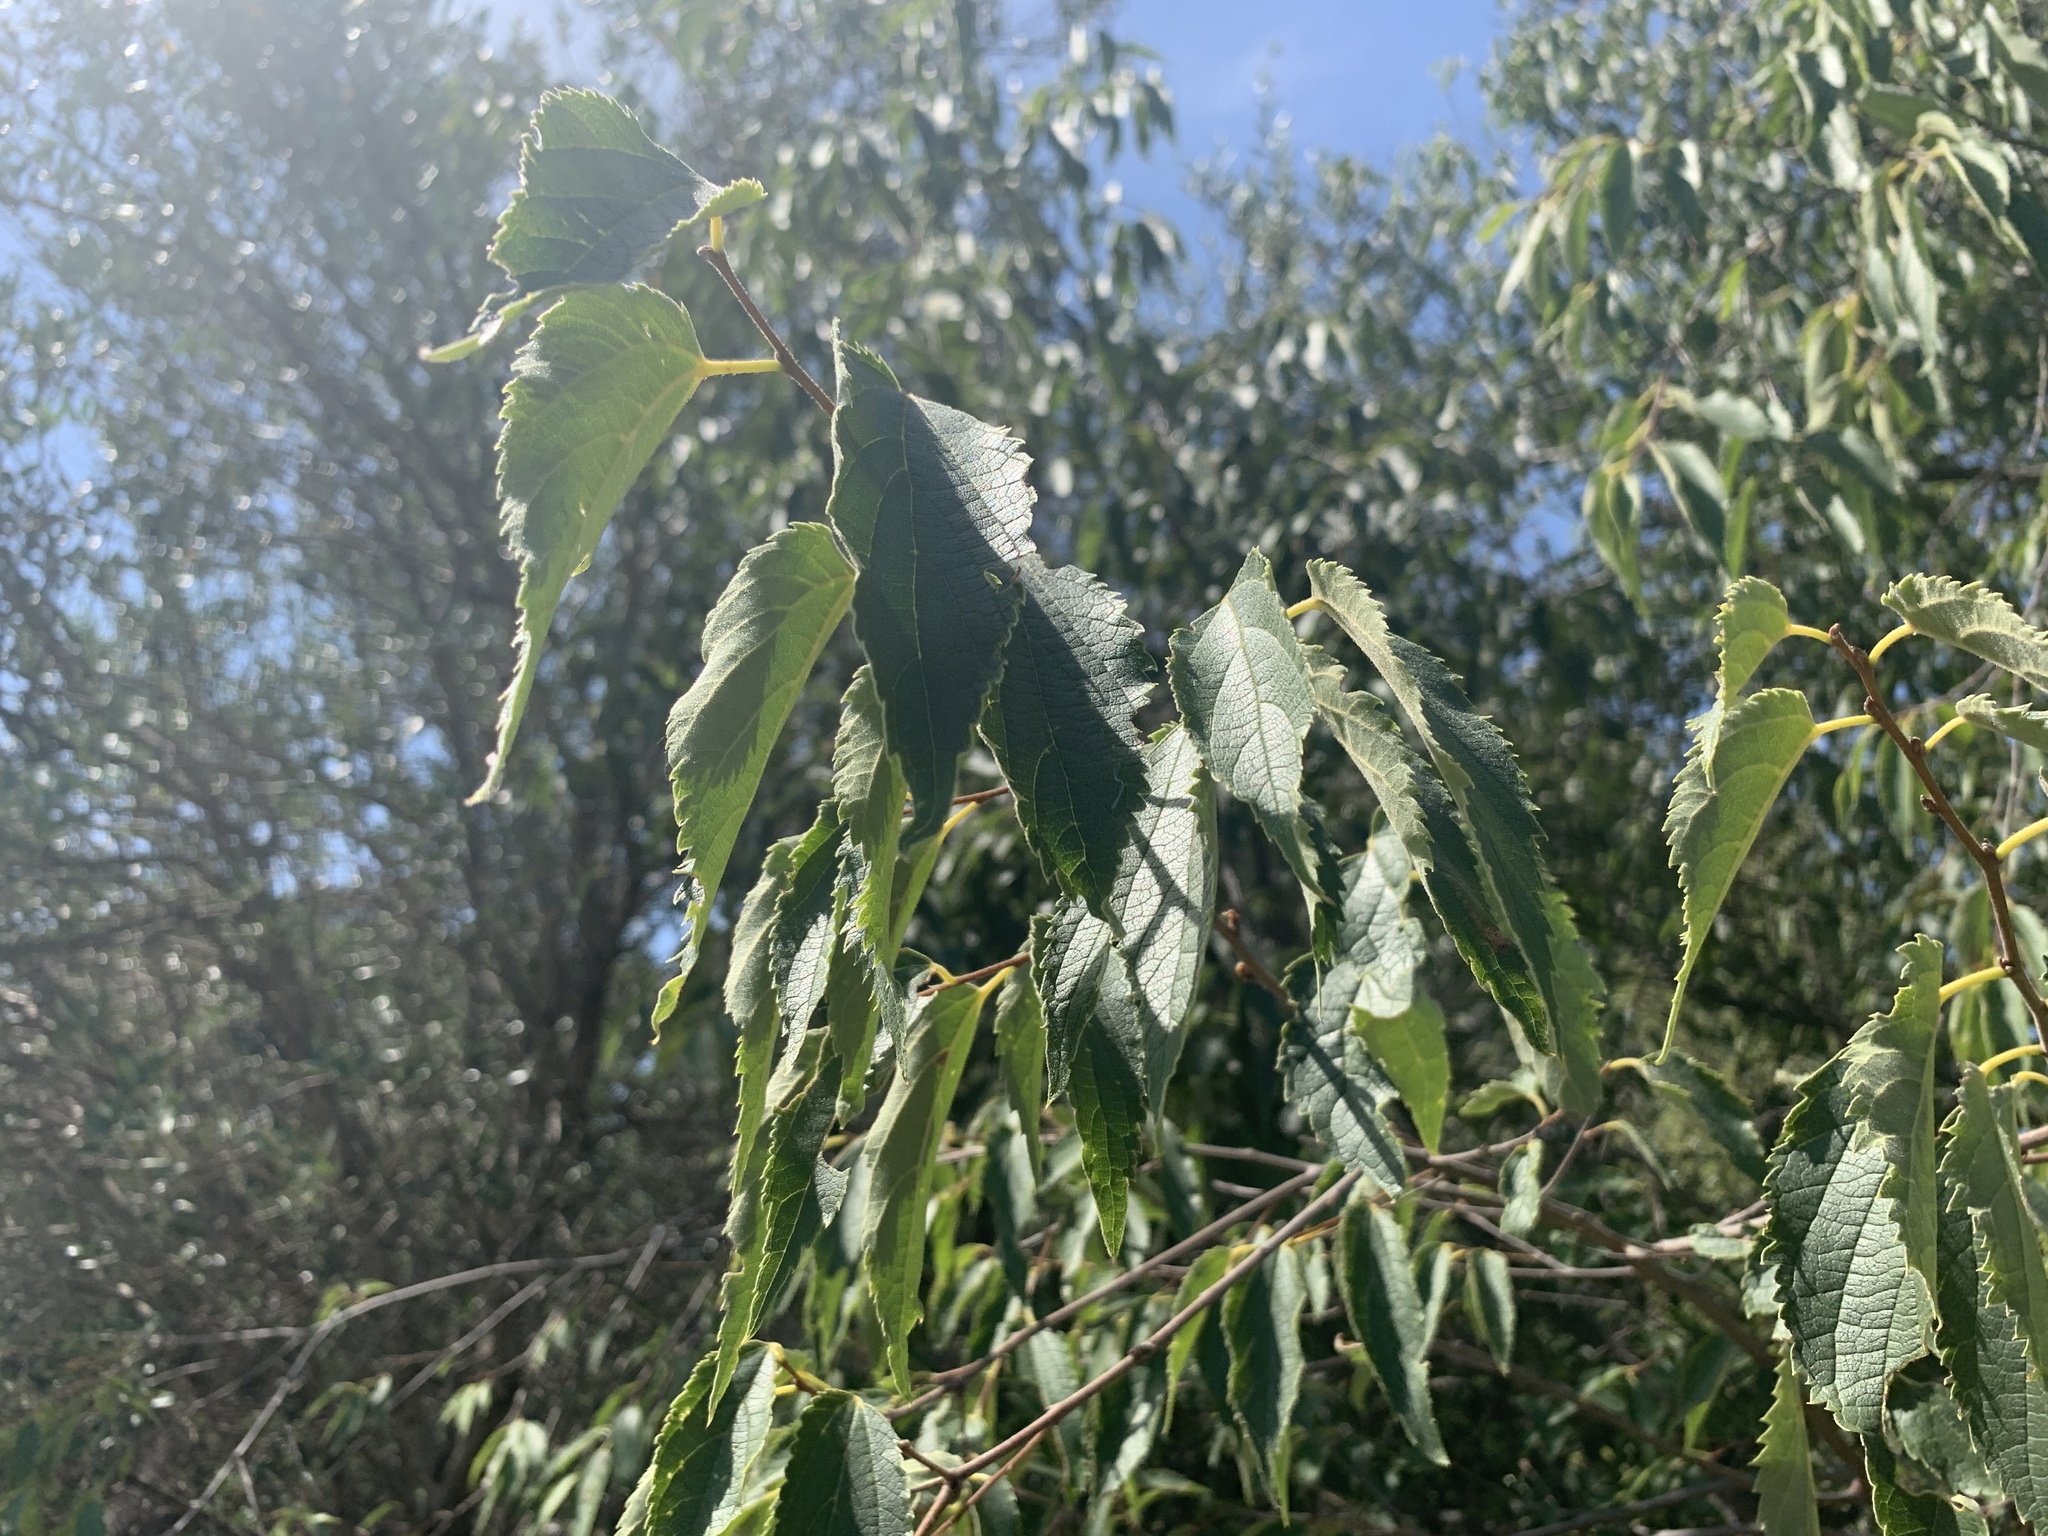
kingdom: Plantae
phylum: Tracheophyta
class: Magnoliopsida
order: Rosales
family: Cannabaceae
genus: Celtis
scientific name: Celtis australis
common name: European hackberry
